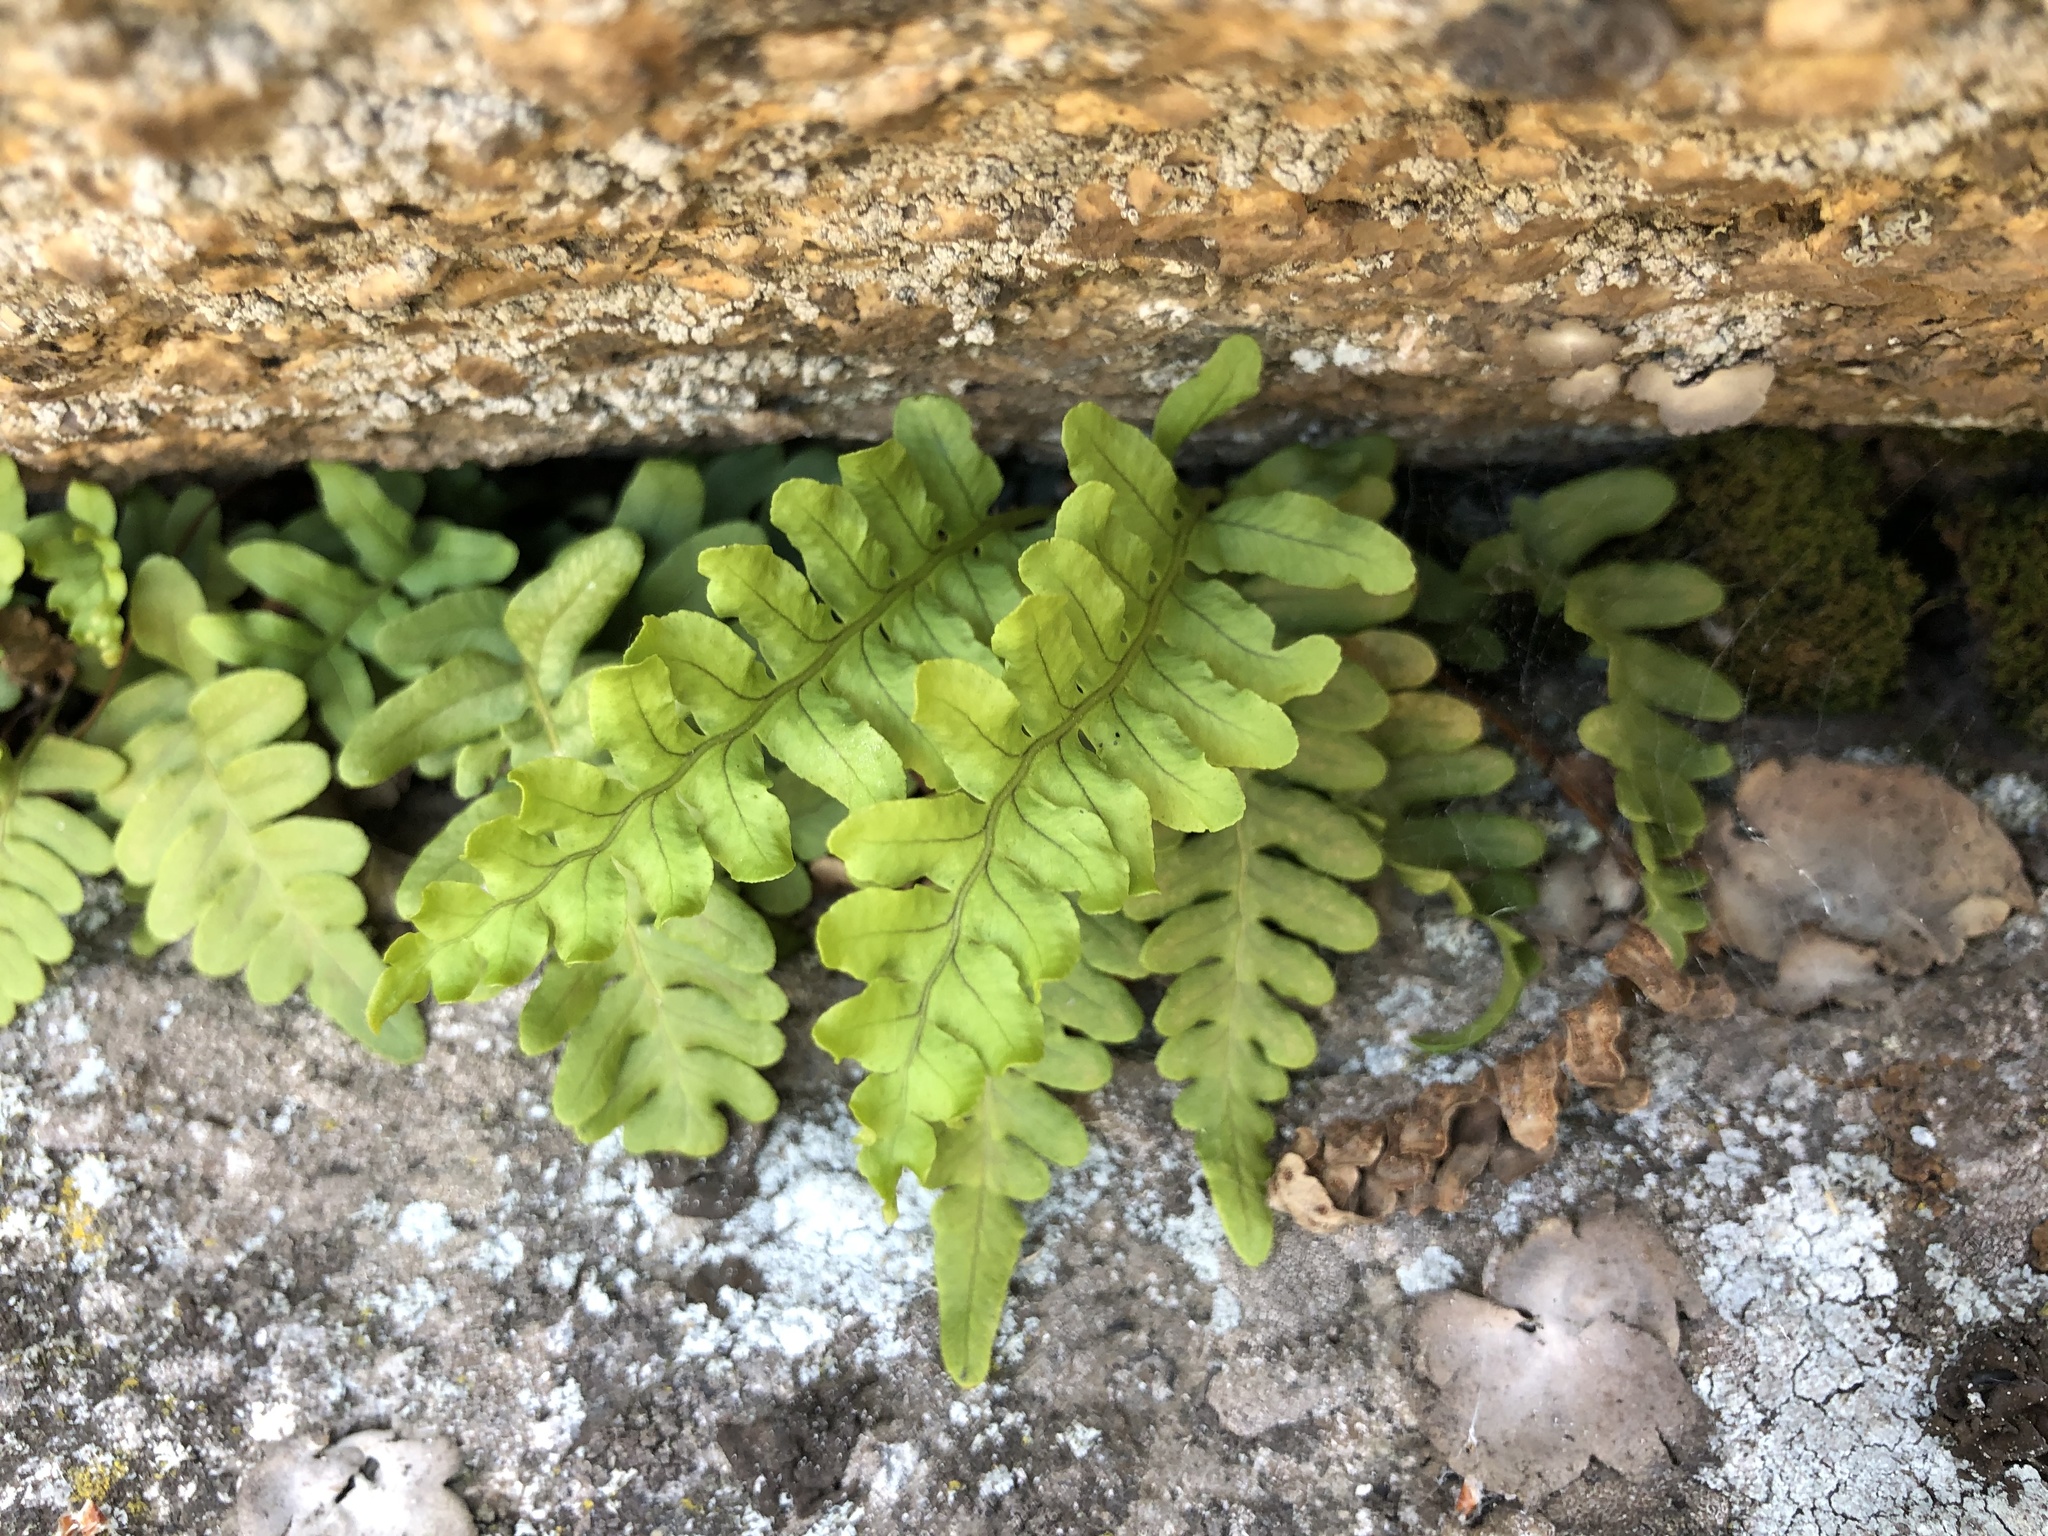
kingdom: Plantae
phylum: Tracheophyta
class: Polypodiopsida
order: Polypodiales
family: Polypodiaceae
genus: Polypodium
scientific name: Polypodium vulgare
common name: Common polypody
